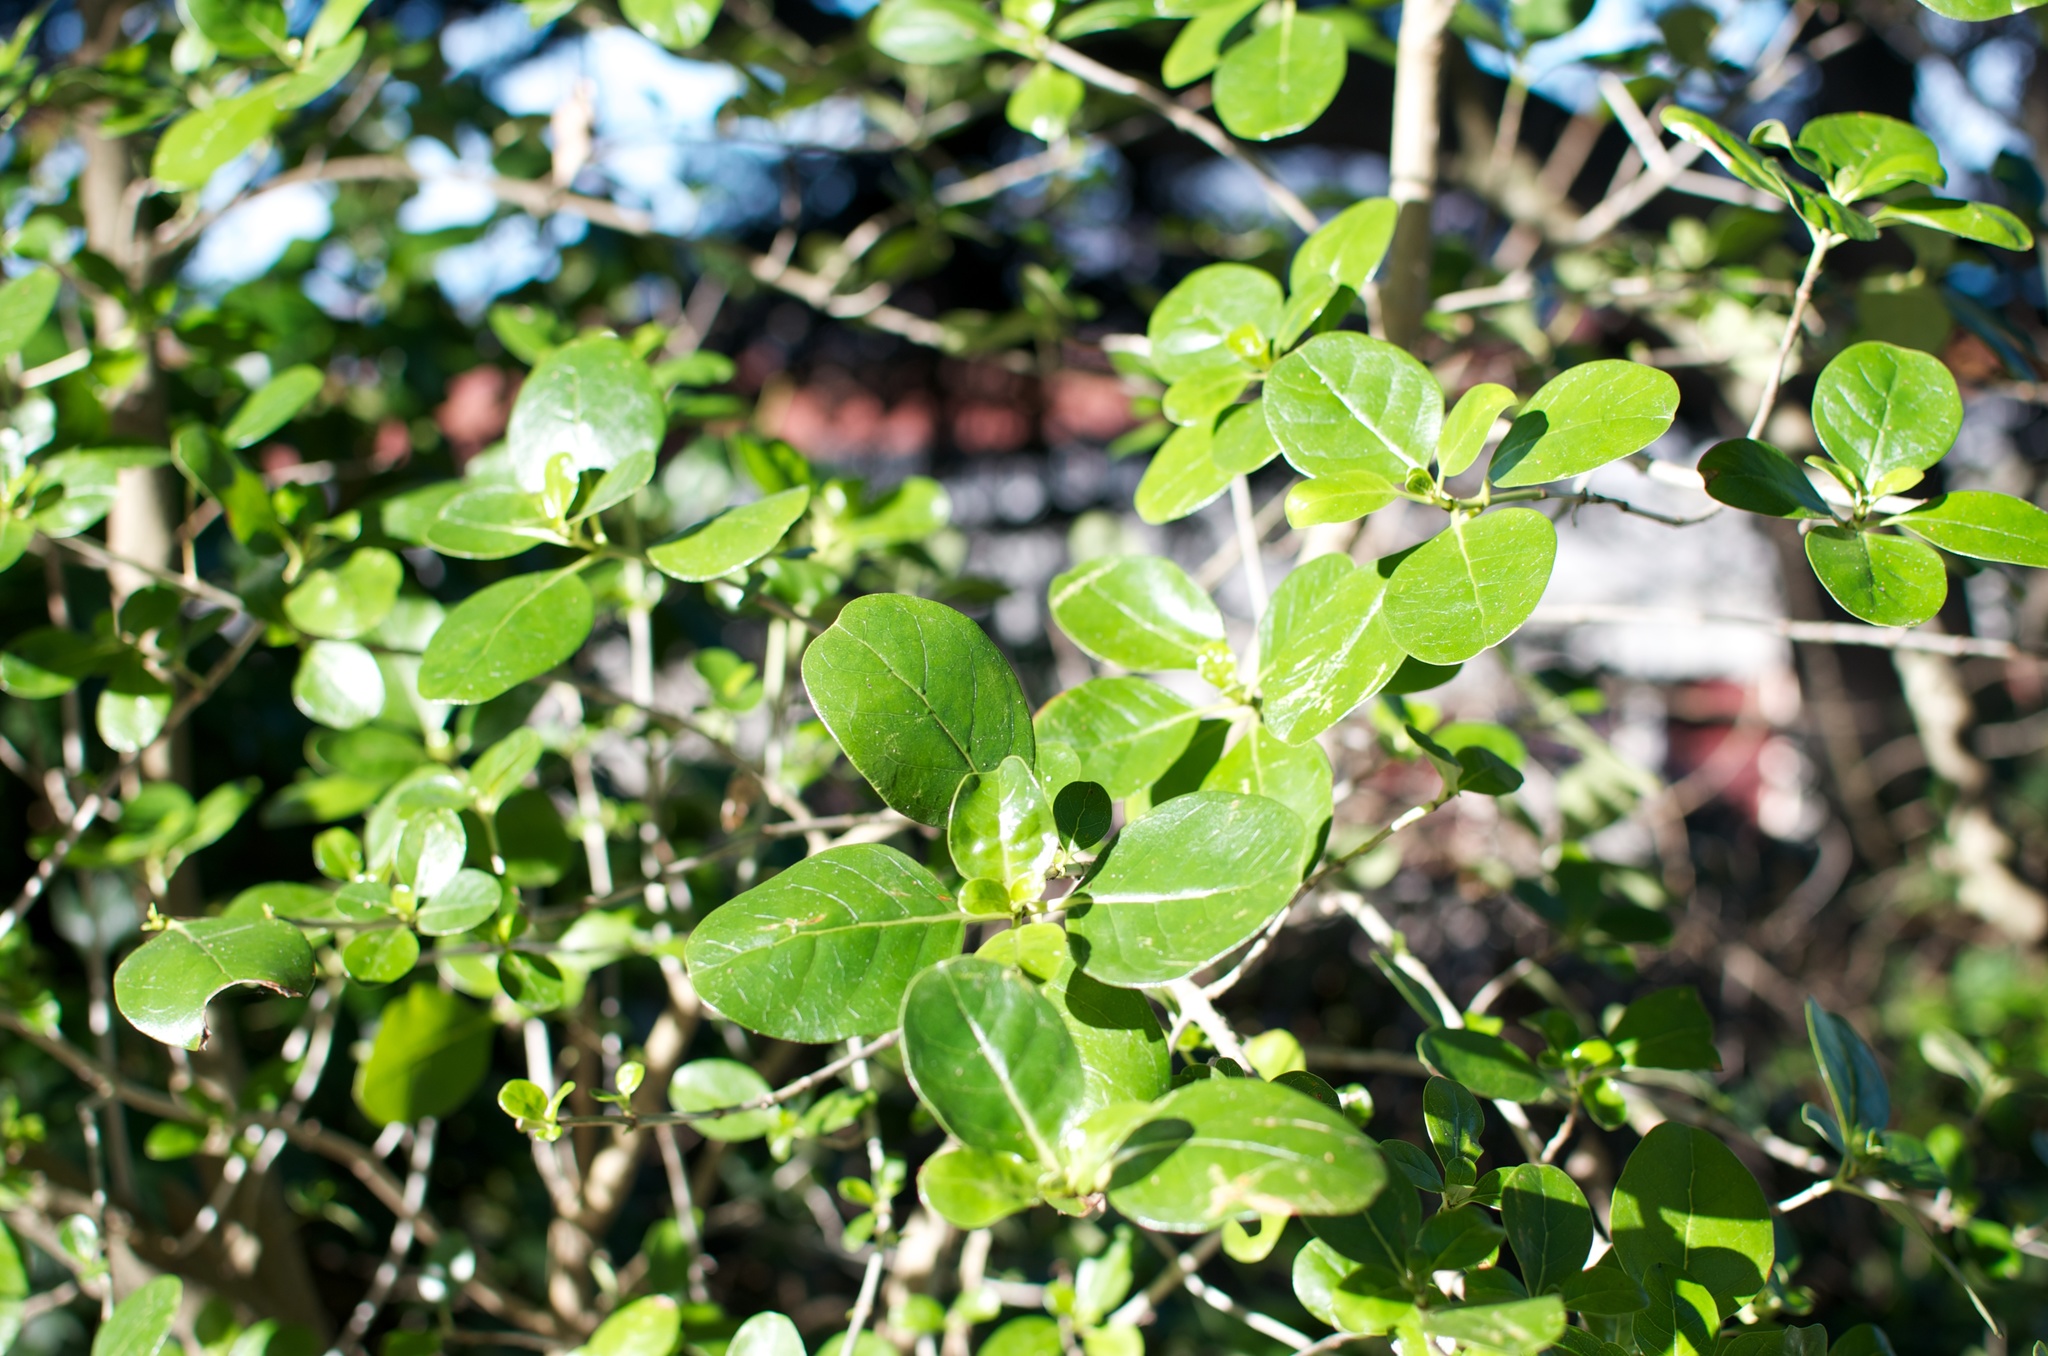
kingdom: Plantae
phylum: Tracheophyta
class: Magnoliopsida
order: Gentianales
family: Rubiaceae
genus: Coprosma
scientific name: Coprosma repens
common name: Tree bedstraw
